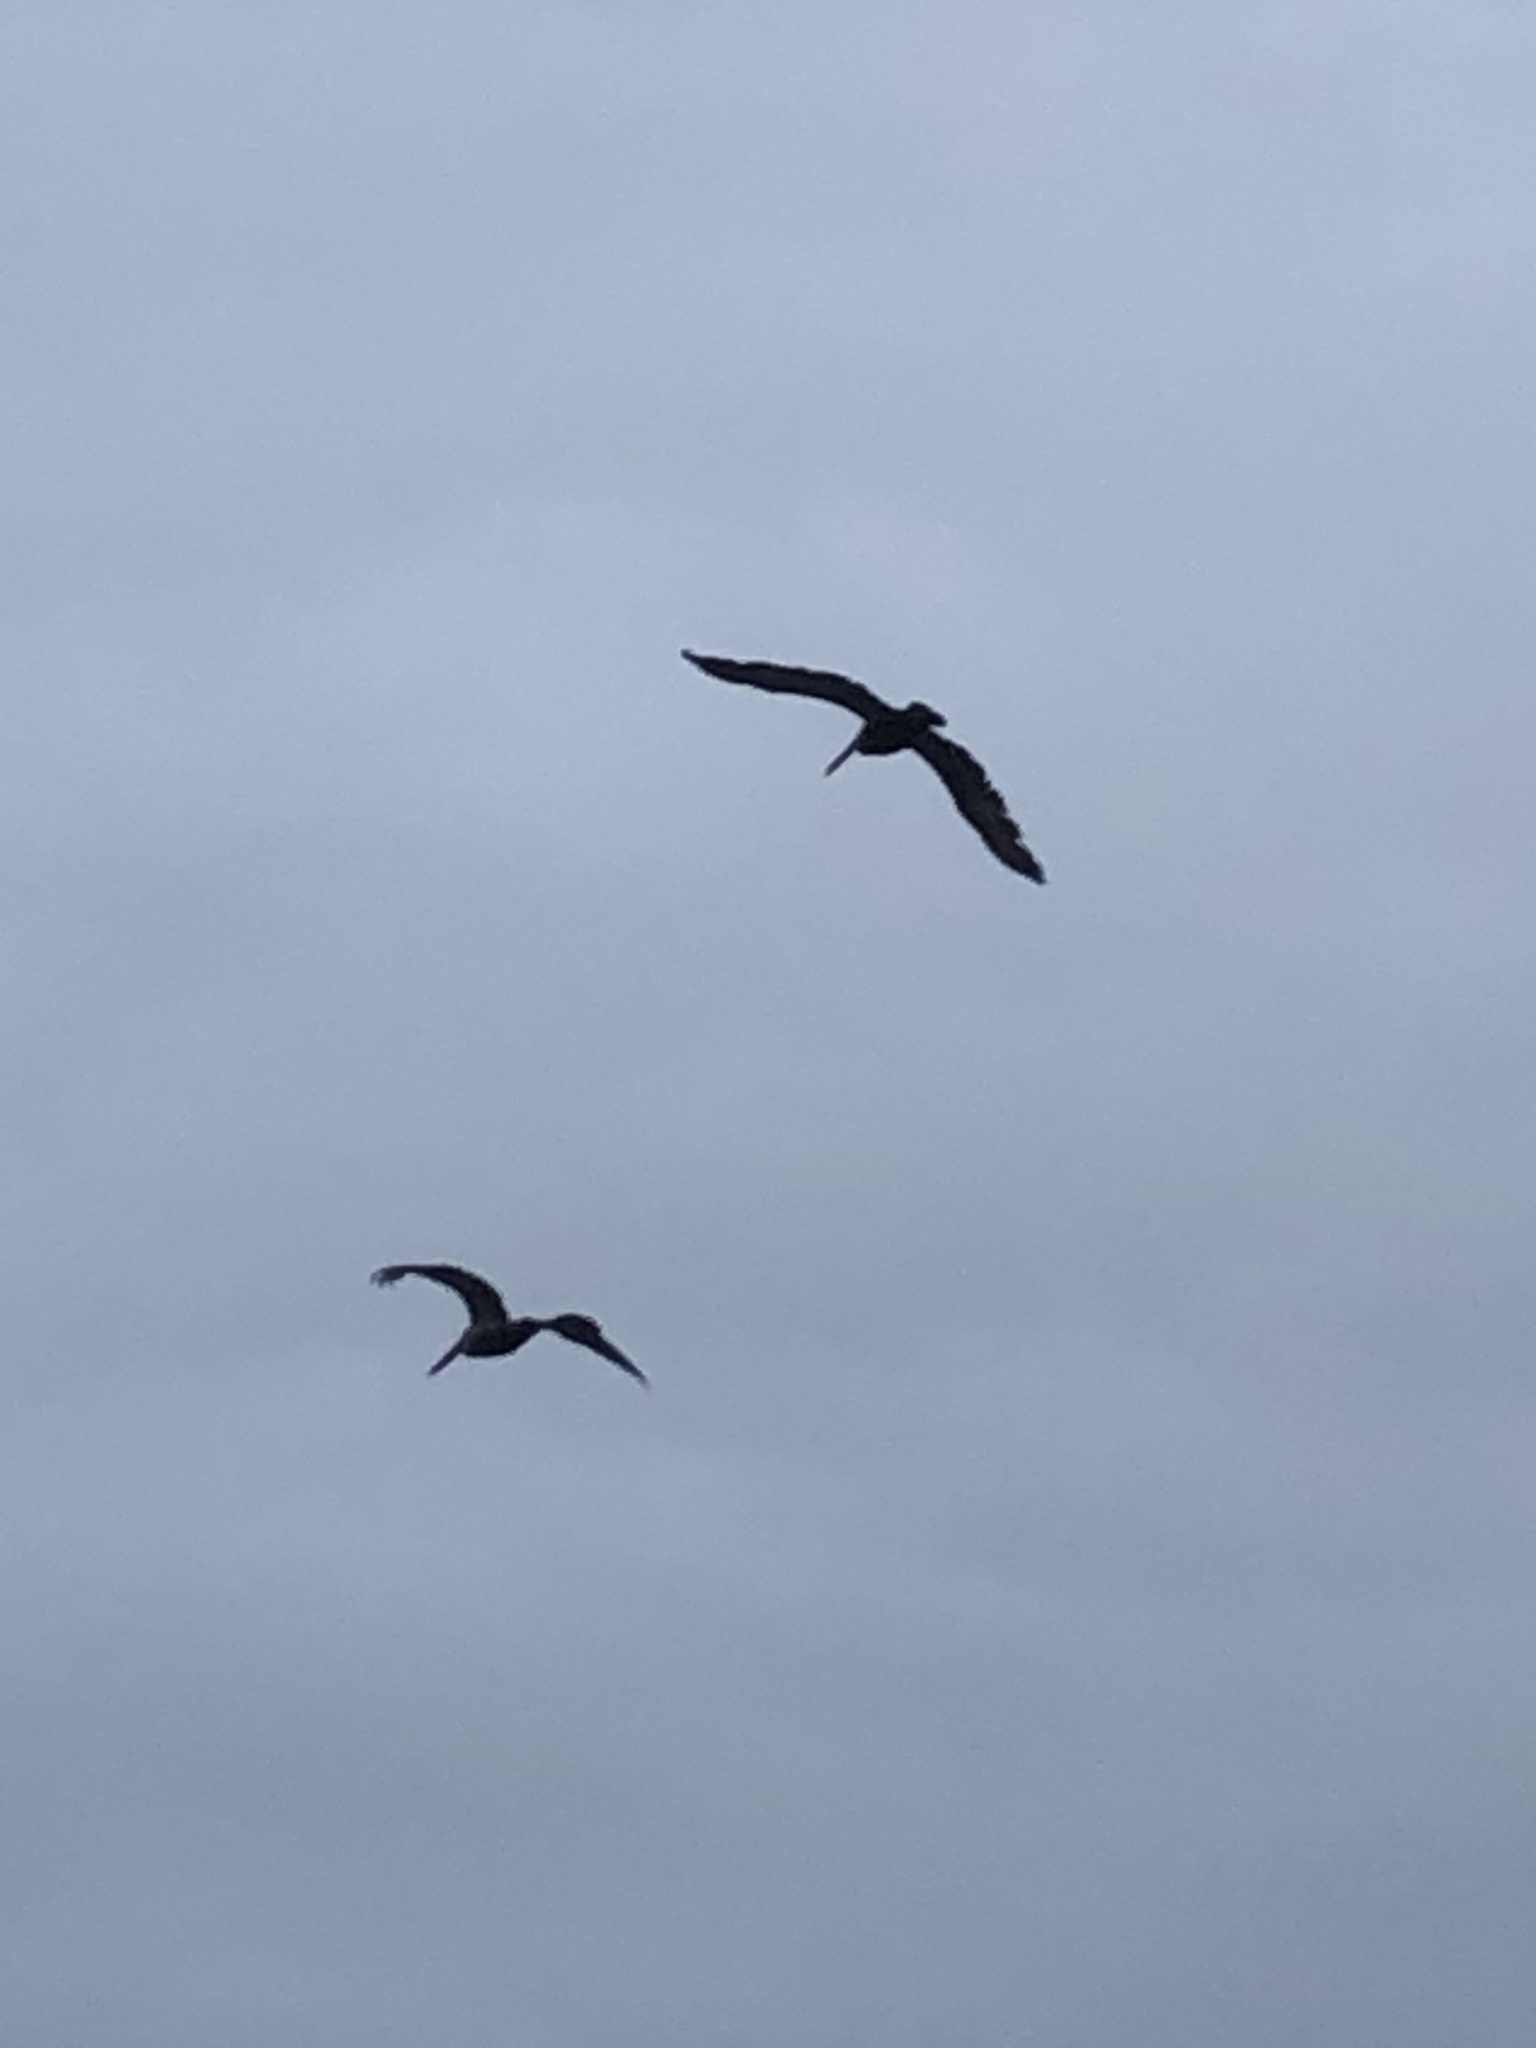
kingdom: Animalia
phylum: Chordata
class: Aves
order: Pelecaniformes
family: Pelecanidae
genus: Pelecanus
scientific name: Pelecanus occidentalis
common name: Brown pelican
